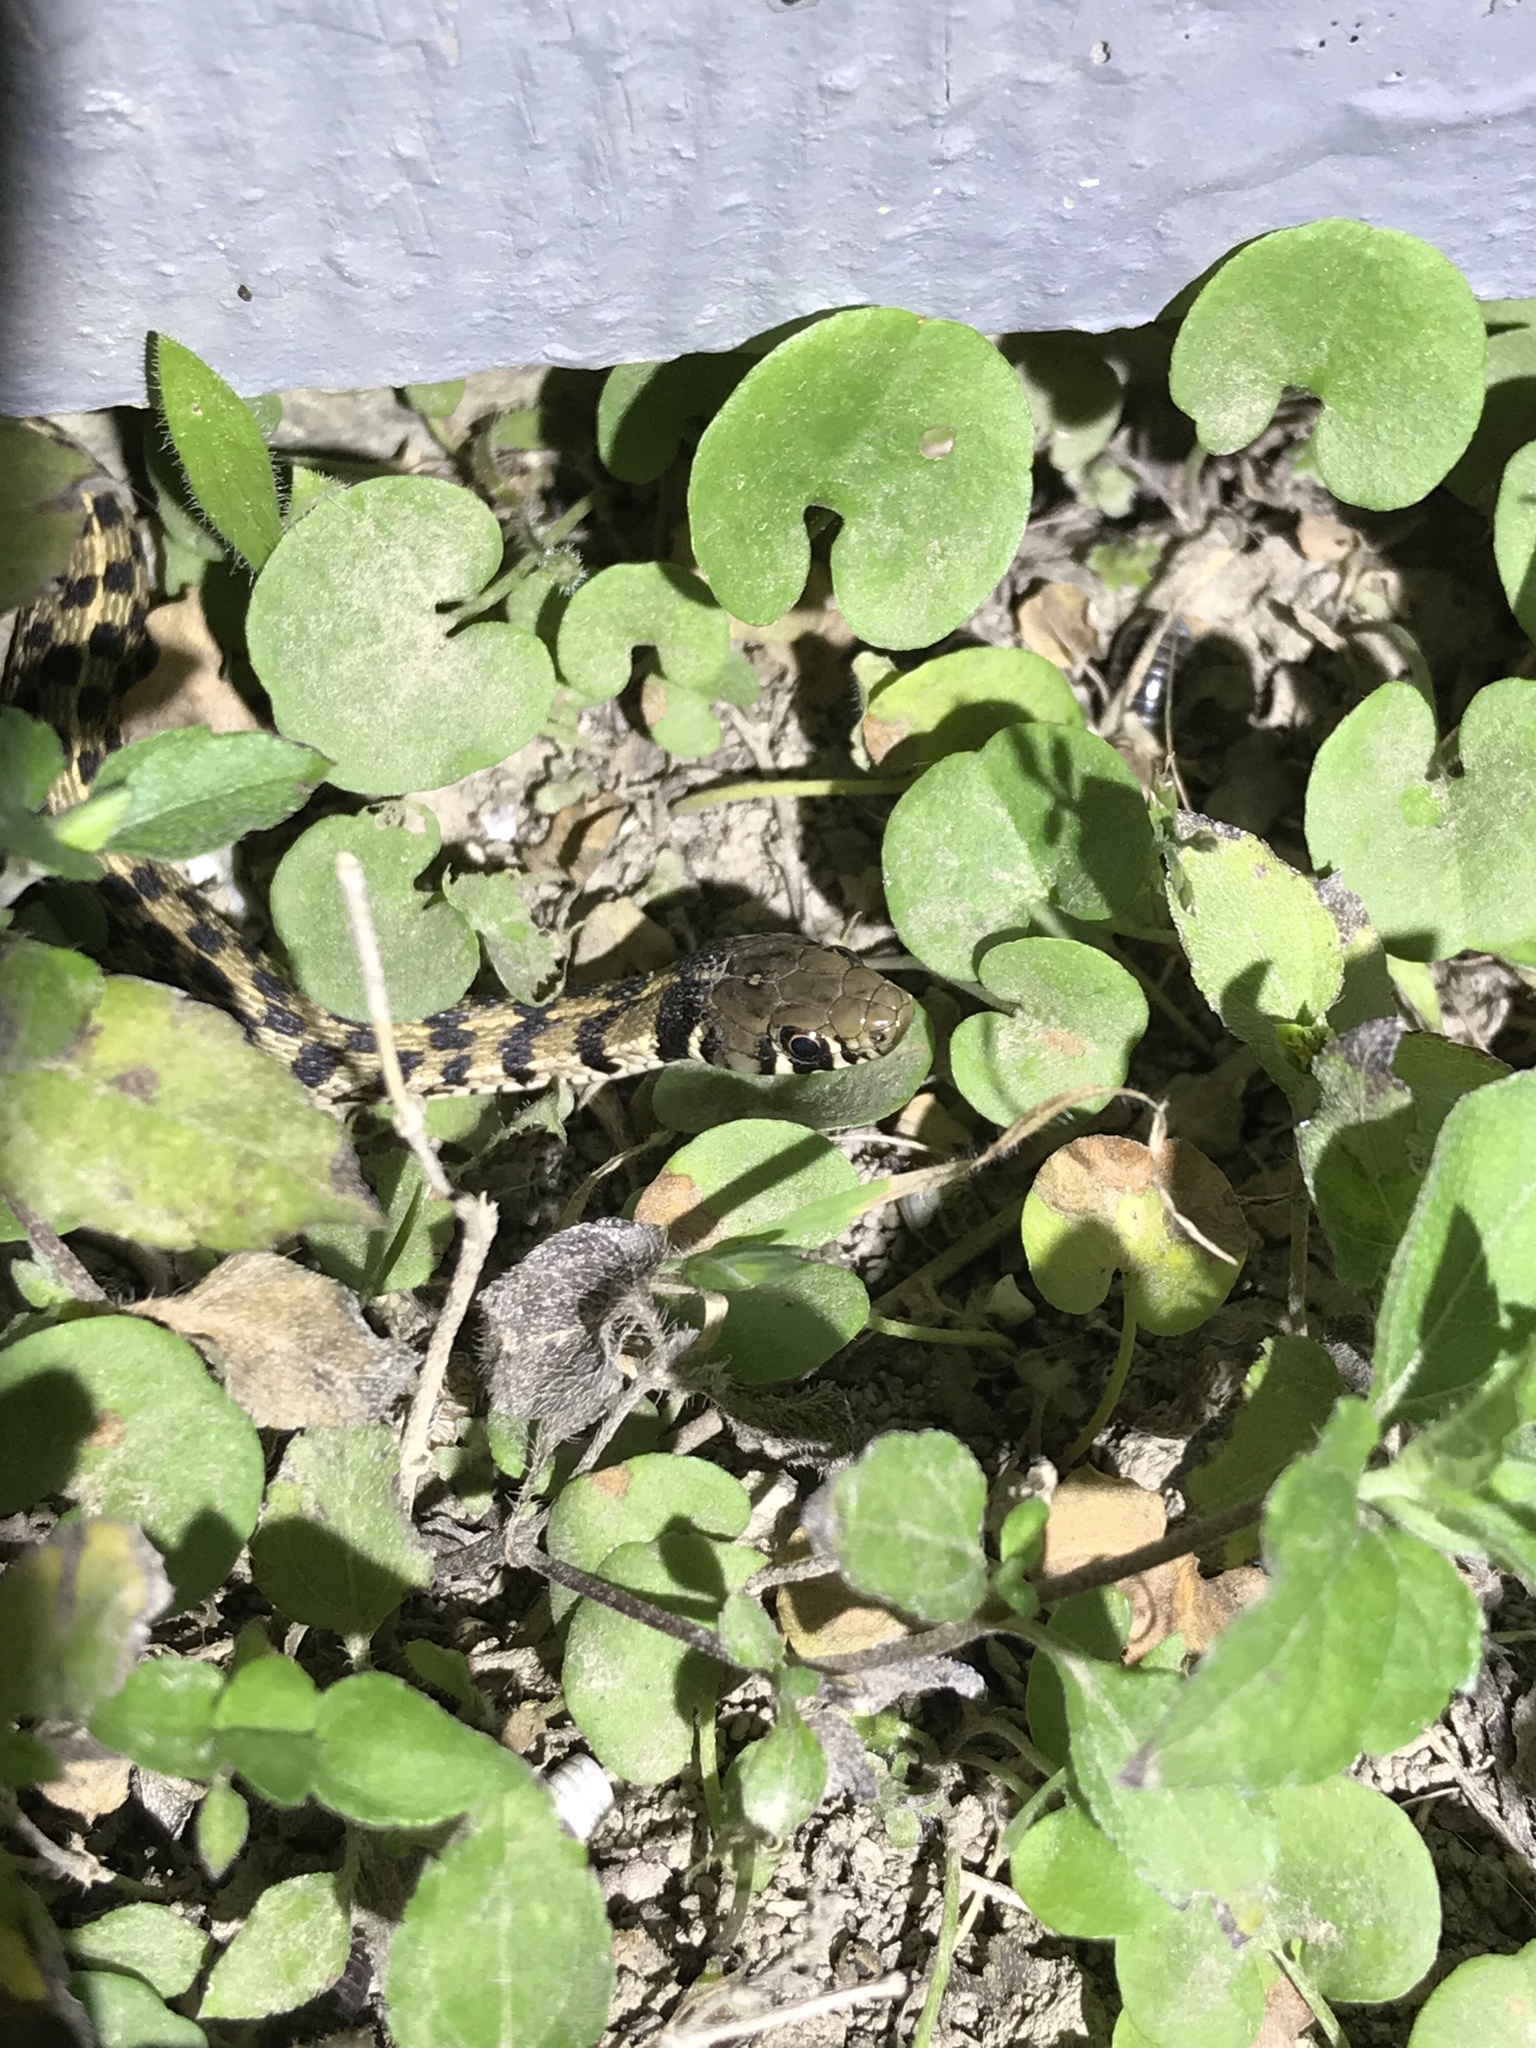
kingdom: Animalia
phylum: Chordata
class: Squamata
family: Colubridae
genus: Thamnophis
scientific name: Thamnophis marcianus
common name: Checkered garter snake
